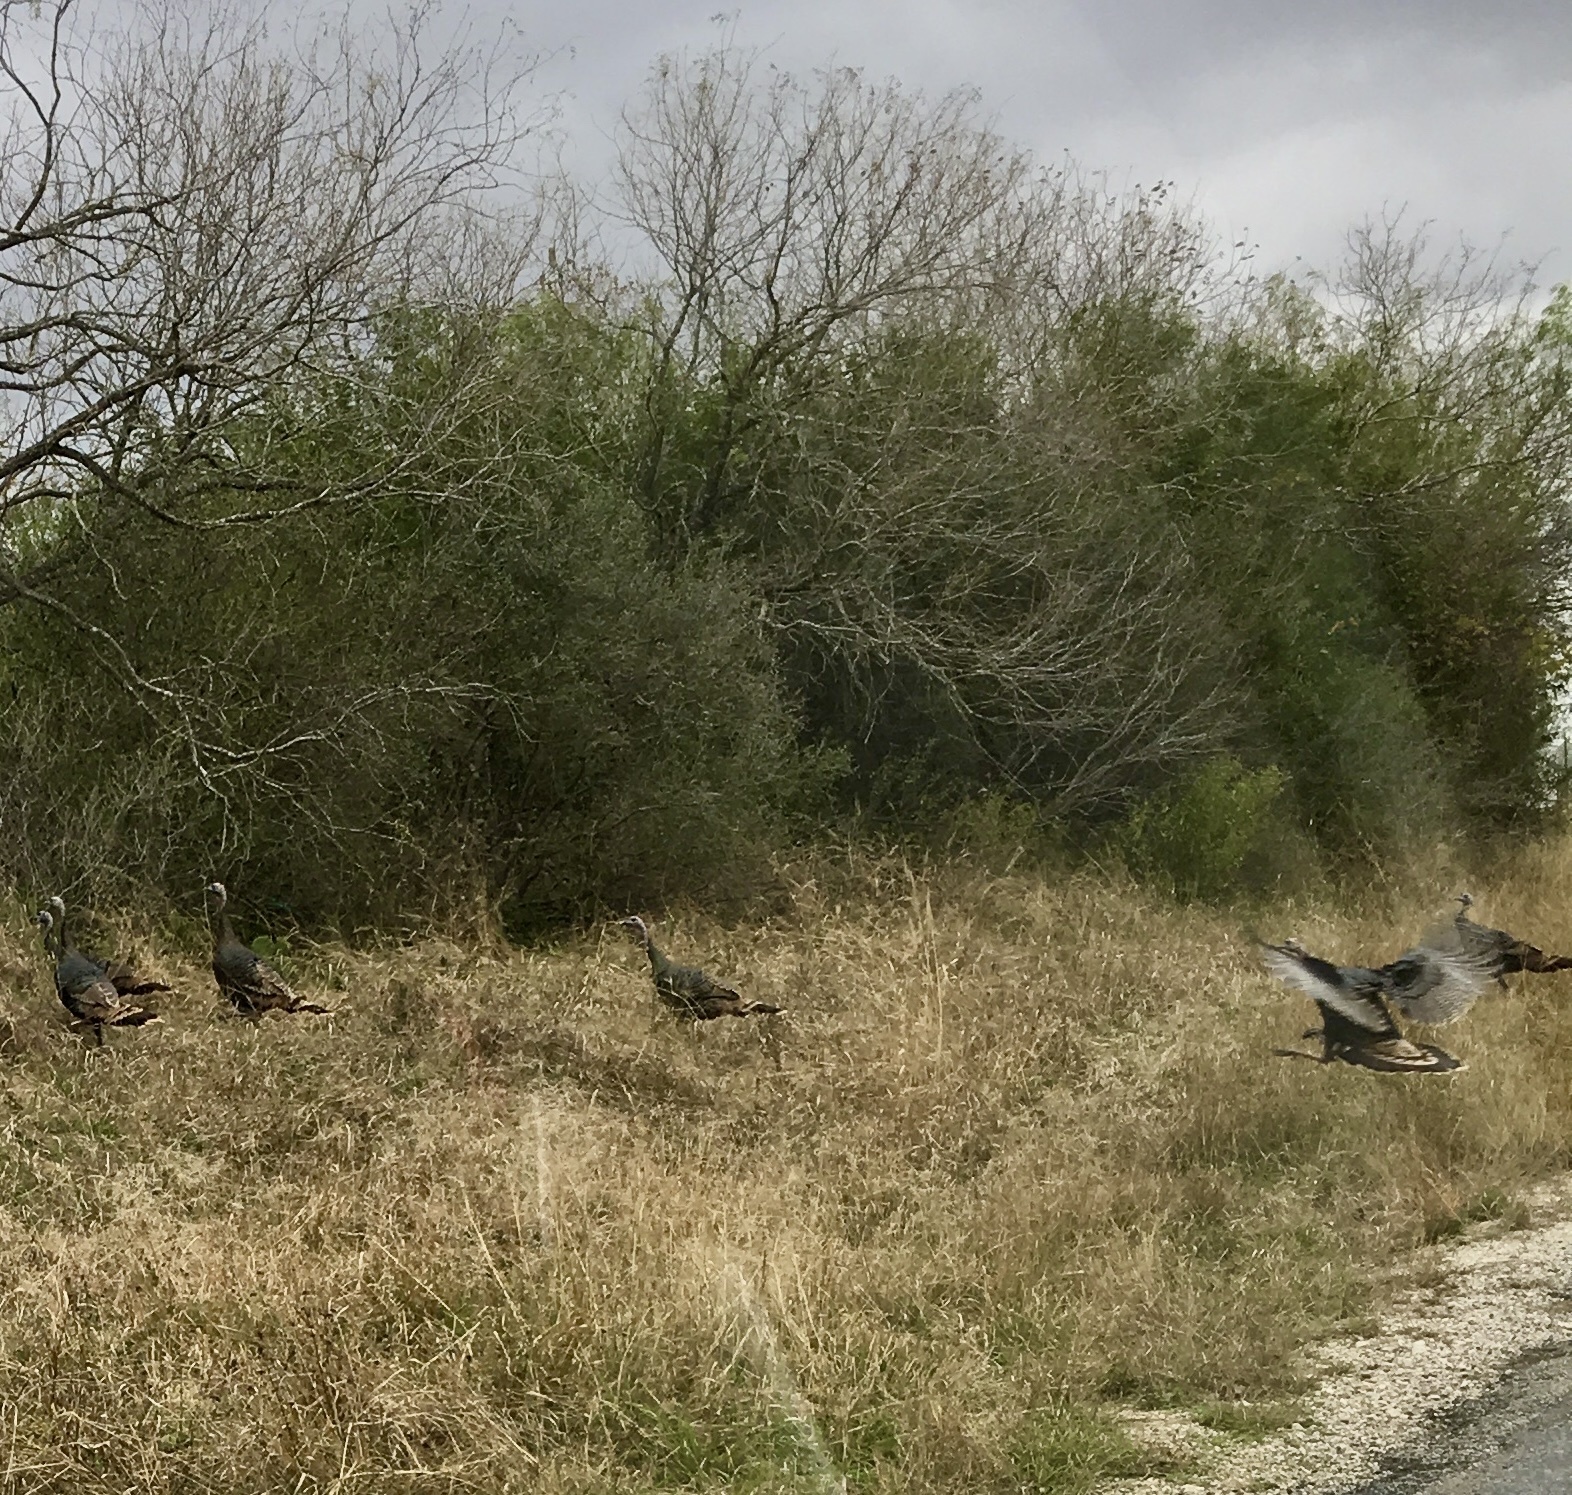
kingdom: Animalia
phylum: Chordata
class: Aves
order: Galliformes
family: Phasianidae
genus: Meleagris
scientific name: Meleagris gallopavo
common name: Wild turkey
